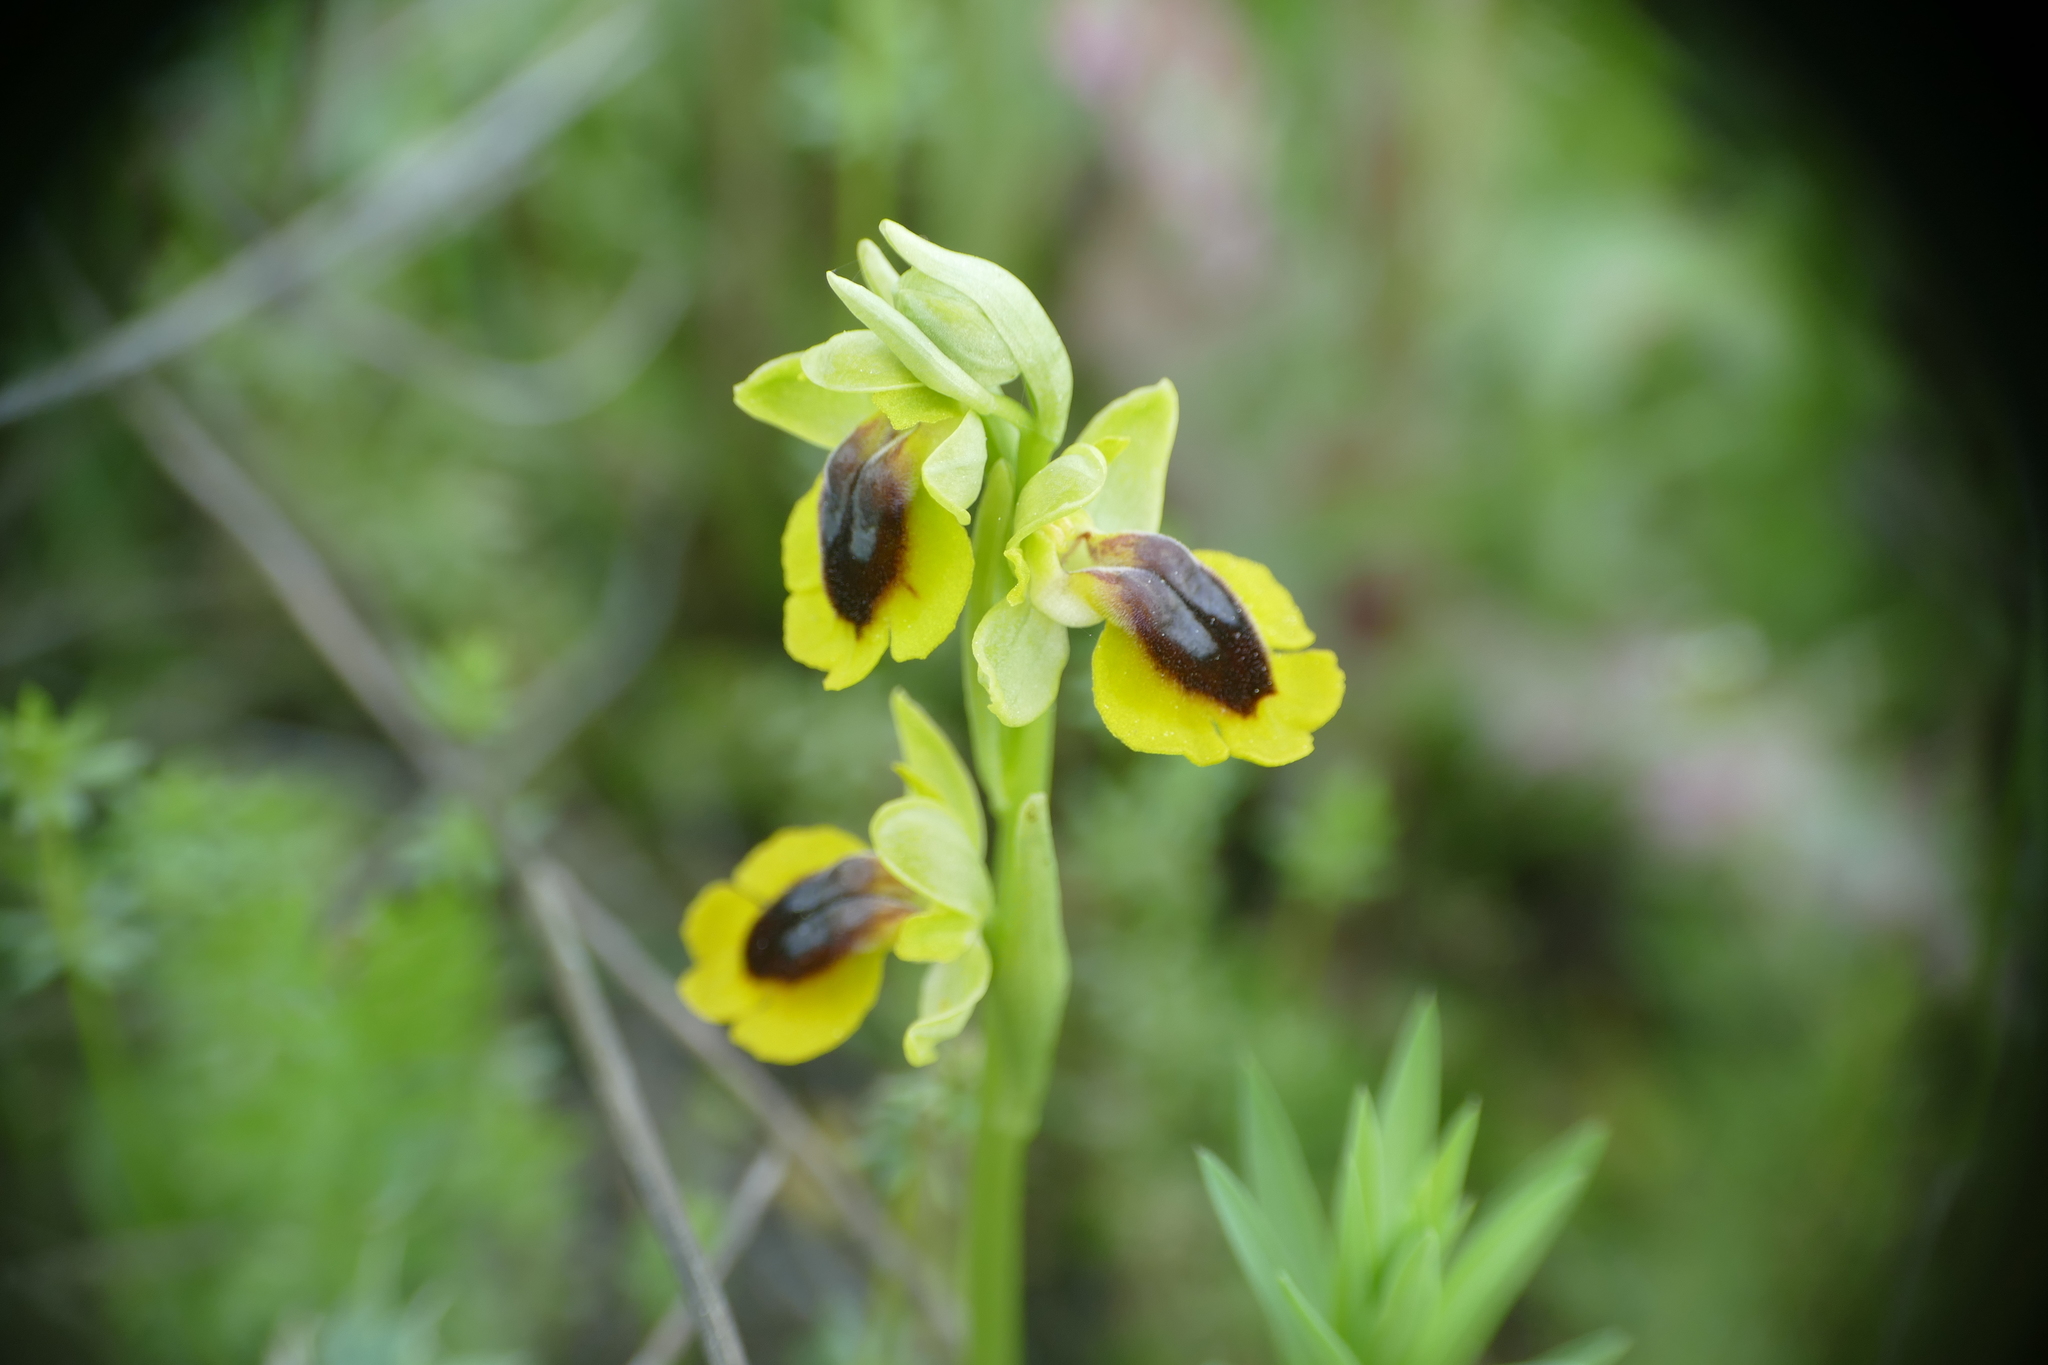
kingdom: Plantae
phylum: Tracheophyta
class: Liliopsida
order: Asparagales
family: Orchidaceae
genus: Ophrys
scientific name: Ophrys lutea
